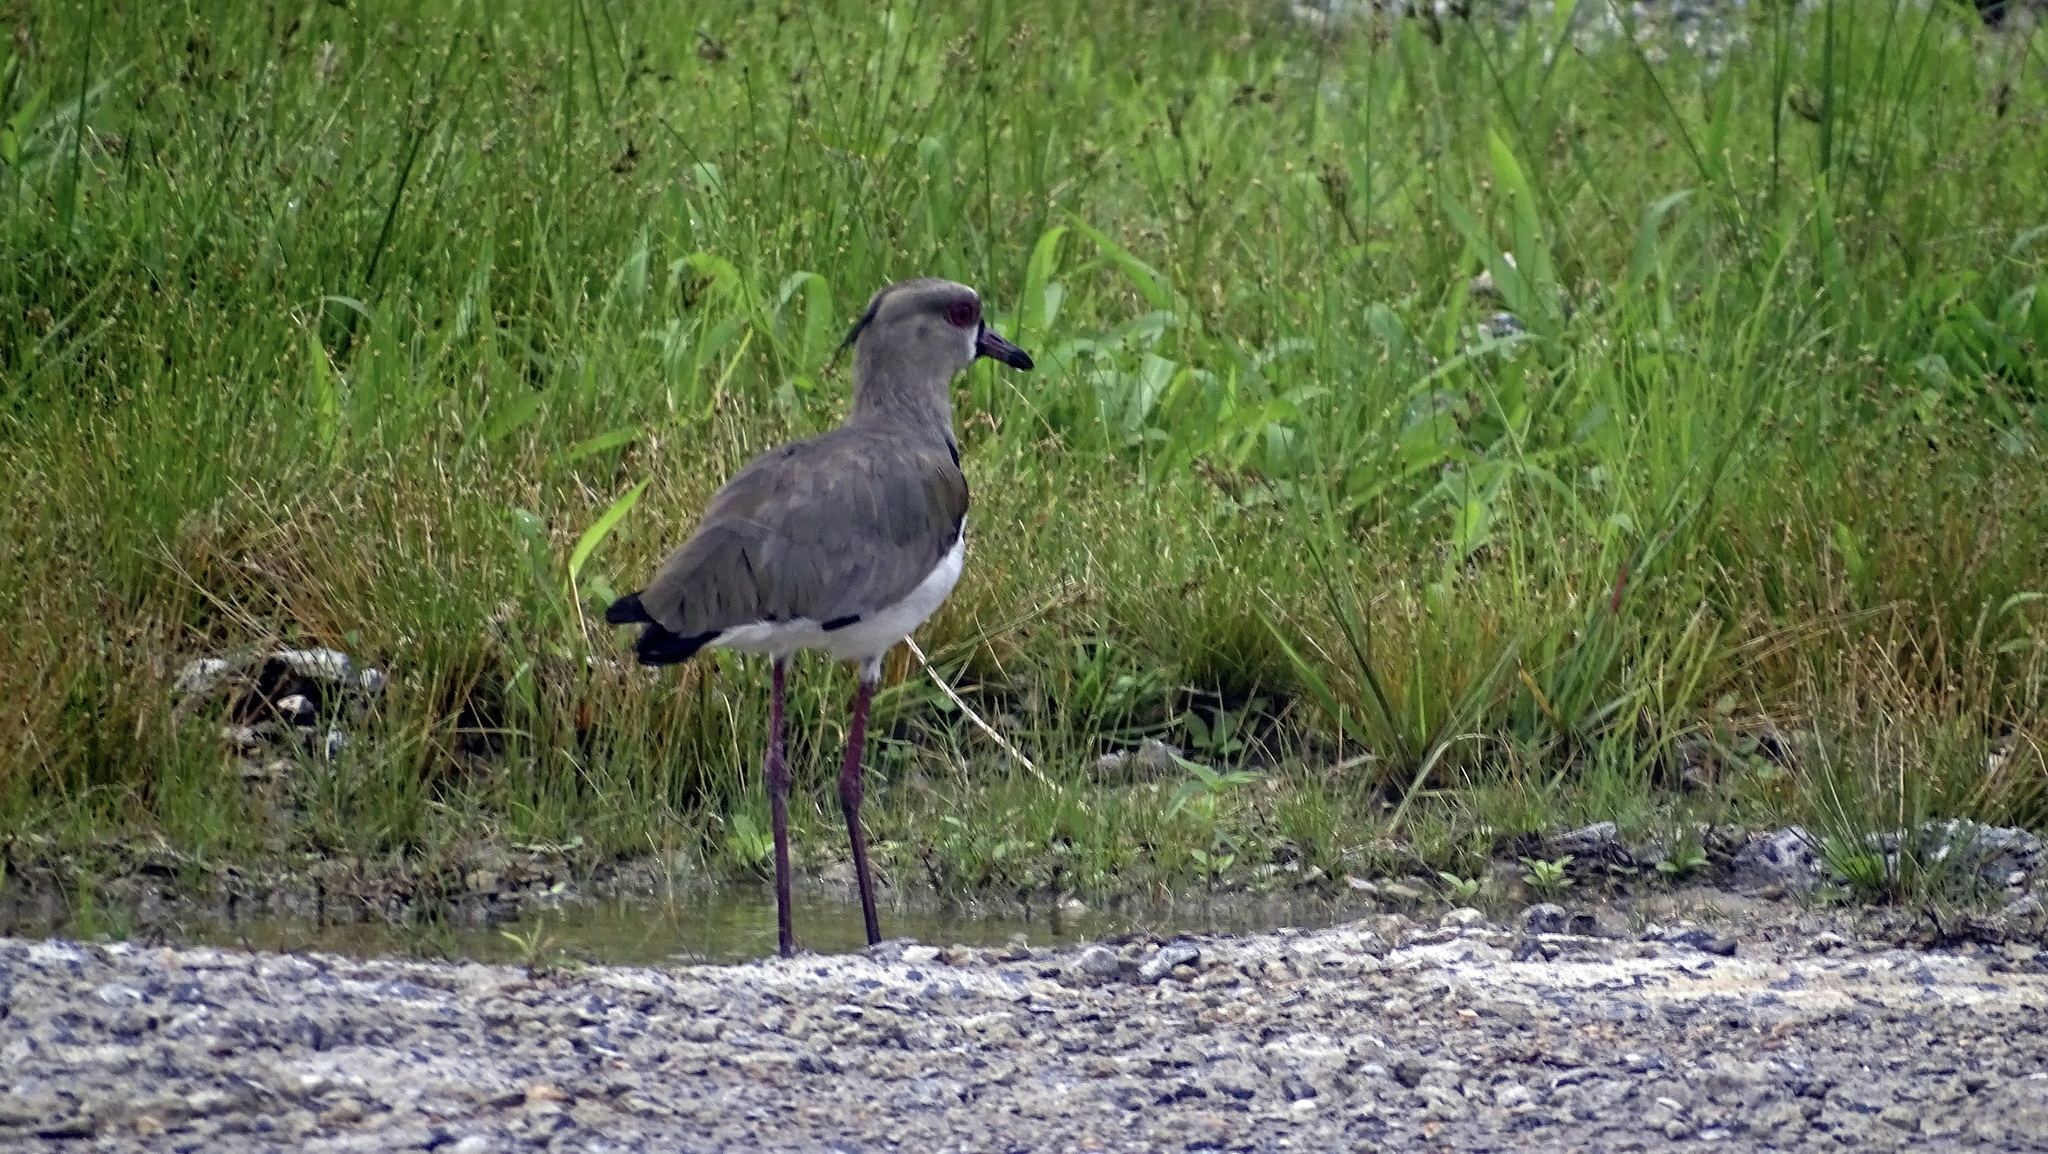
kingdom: Animalia
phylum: Chordata
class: Aves
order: Charadriiformes
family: Charadriidae
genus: Vanellus
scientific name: Vanellus chilensis
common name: Southern lapwing
